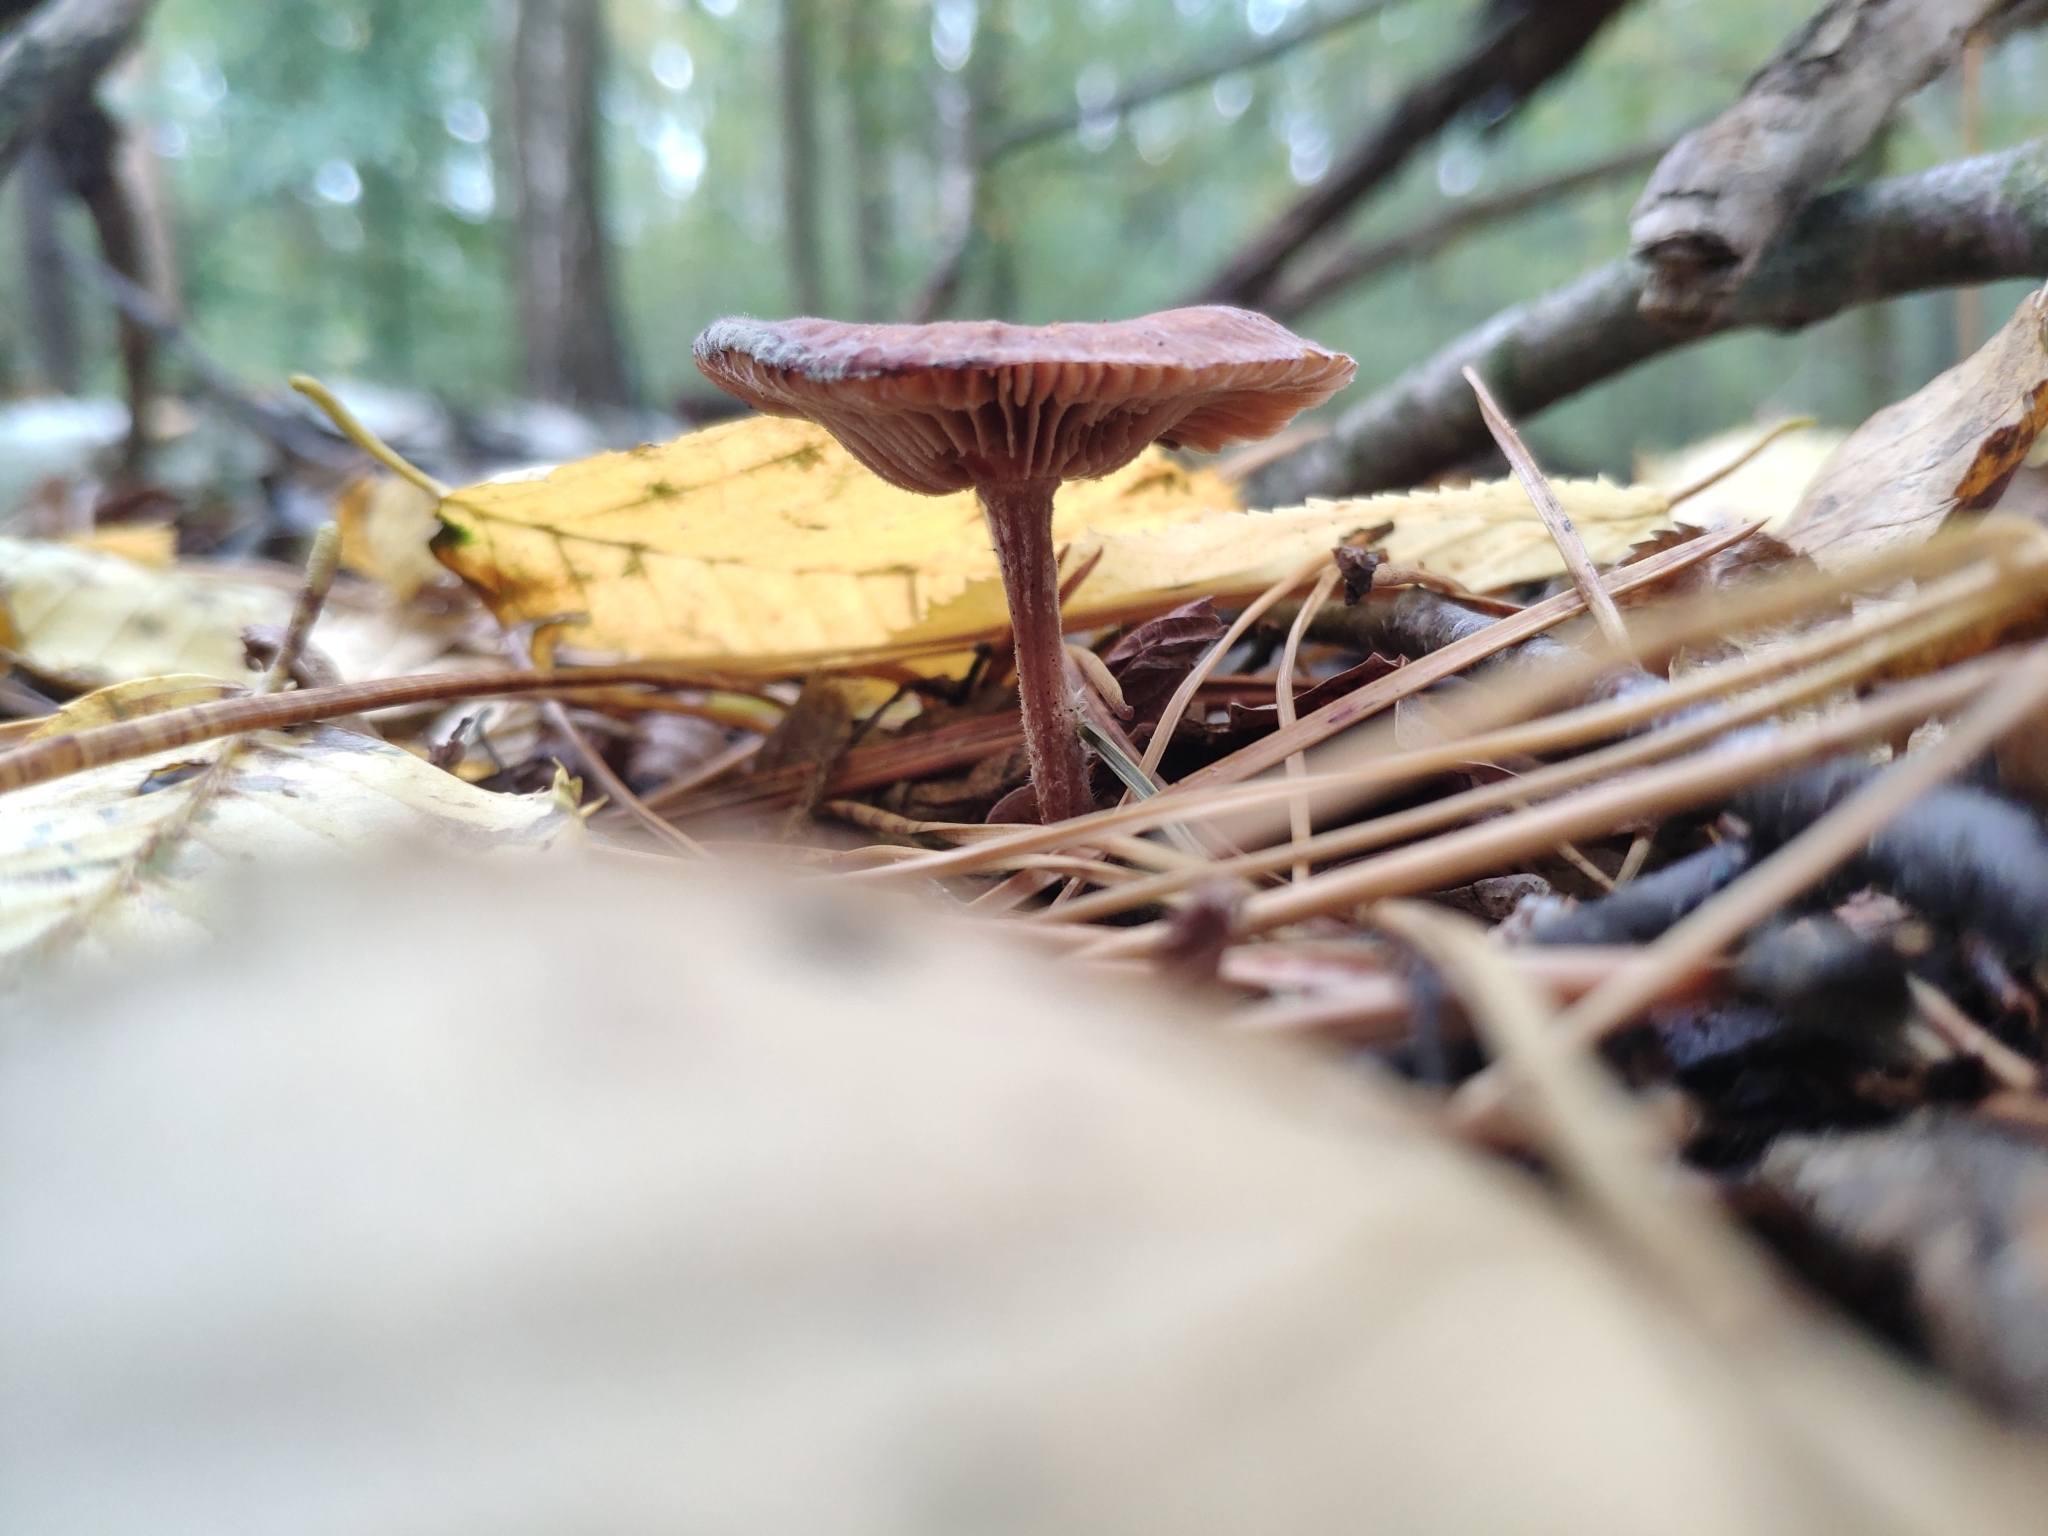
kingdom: Fungi
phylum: Basidiomycota
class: Agaricomycetes
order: Agaricales
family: Omphalotaceae
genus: Collybiopsis
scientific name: Collybiopsis peronata
